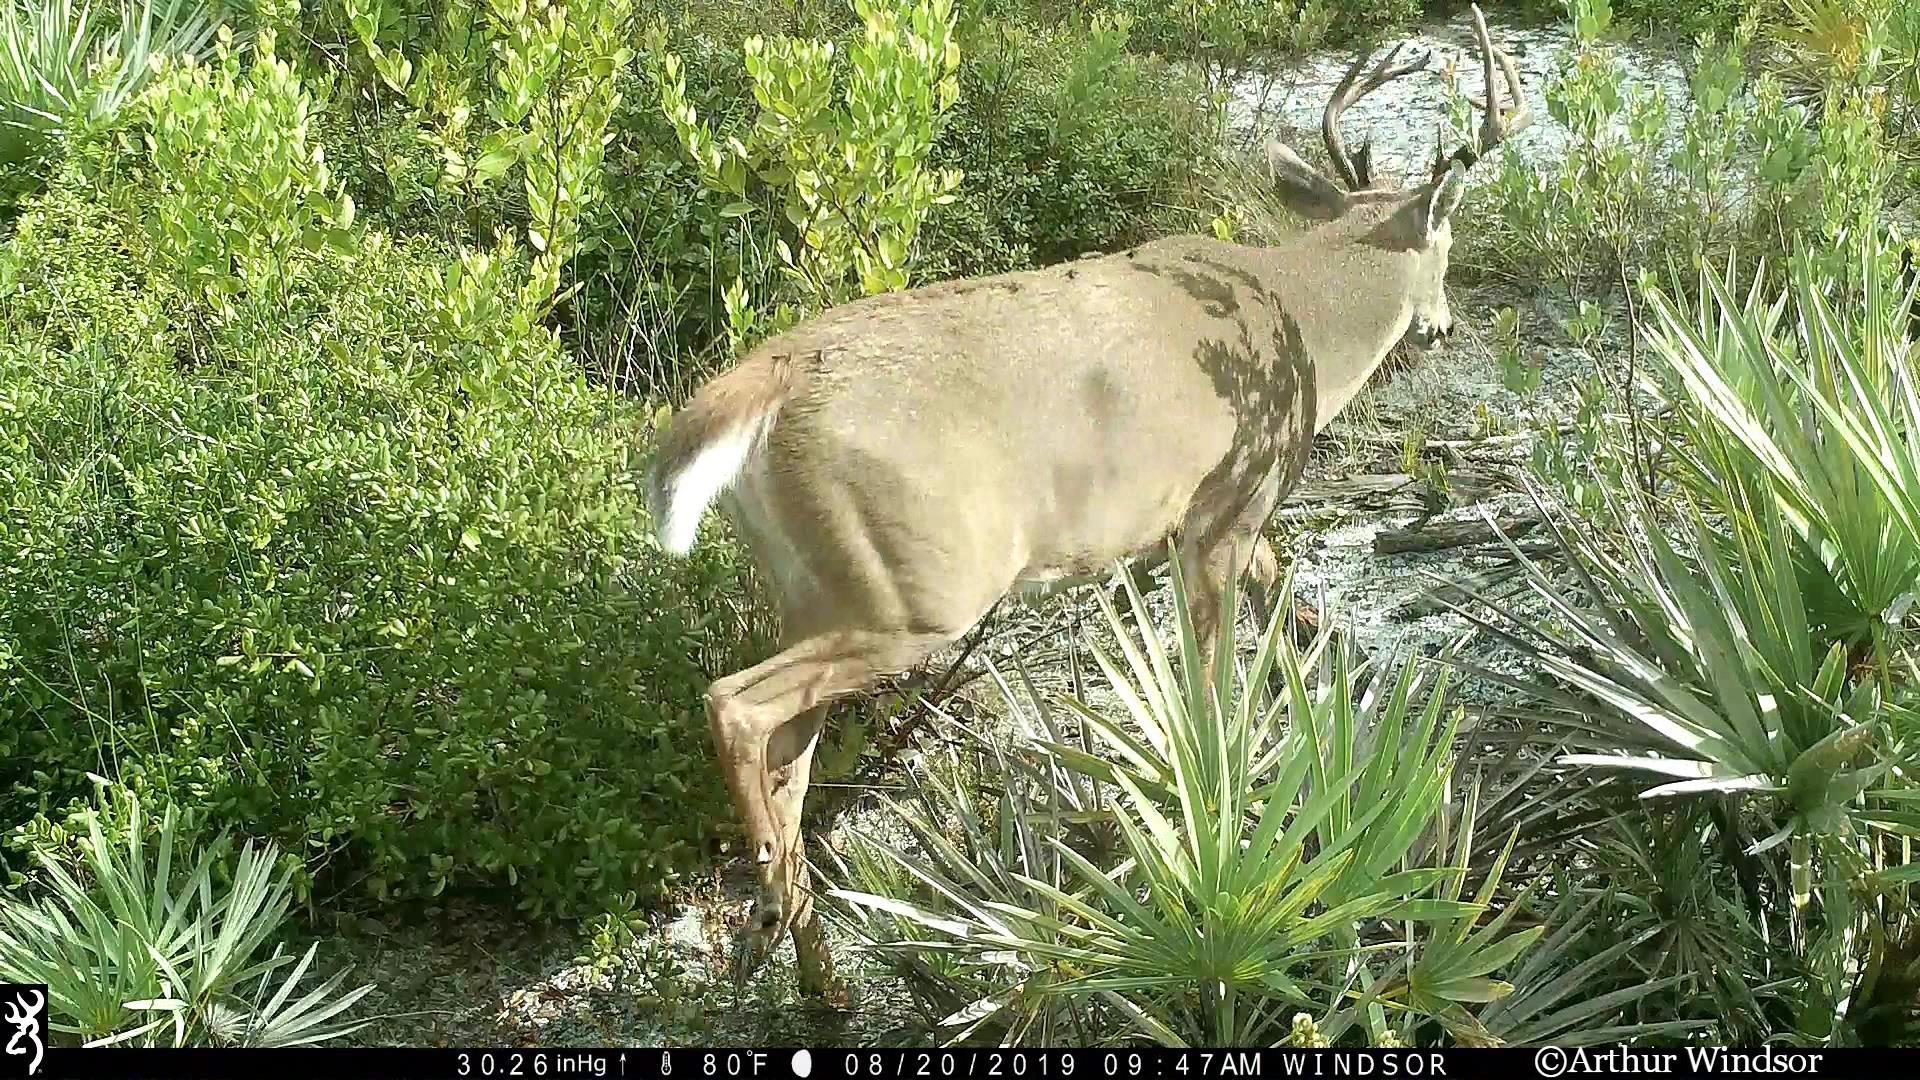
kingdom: Animalia
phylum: Chordata
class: Mammalia
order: Artiodactyla
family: Cervidae
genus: Odocoileus
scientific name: Odocoileus virginianus
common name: White-tailed deer
